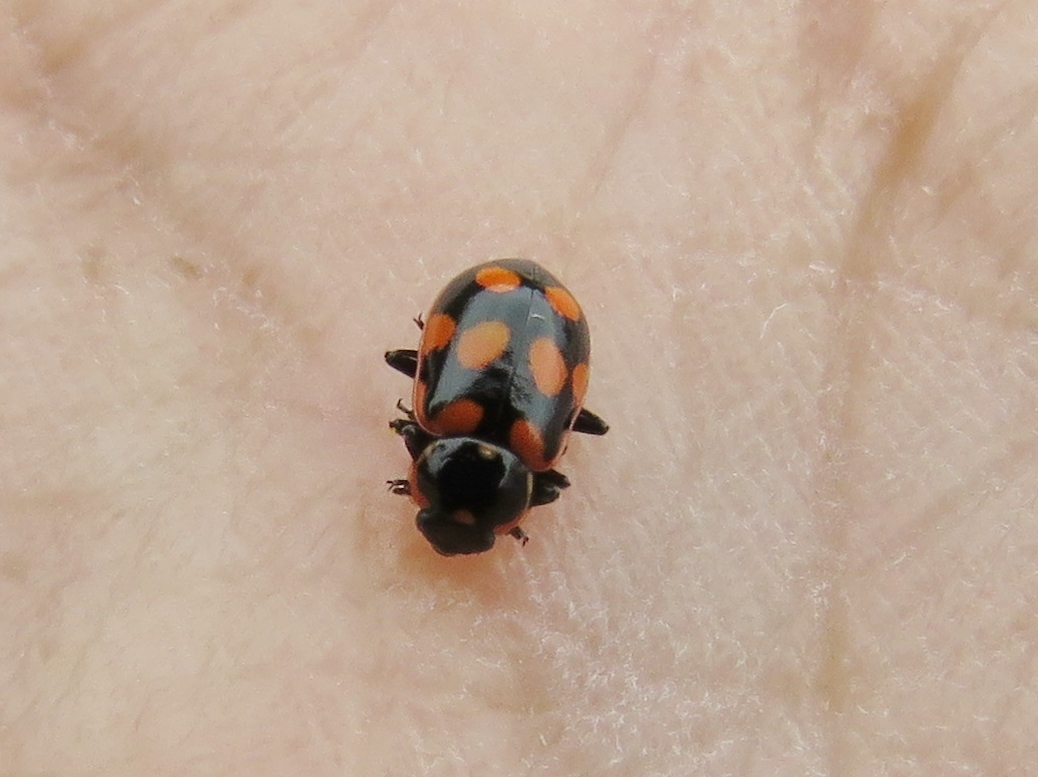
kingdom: Animalia
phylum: Arthropoda
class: Insecta
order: Coleoptera
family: Coccinellidae
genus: Eriopis
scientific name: Eriopis minima
